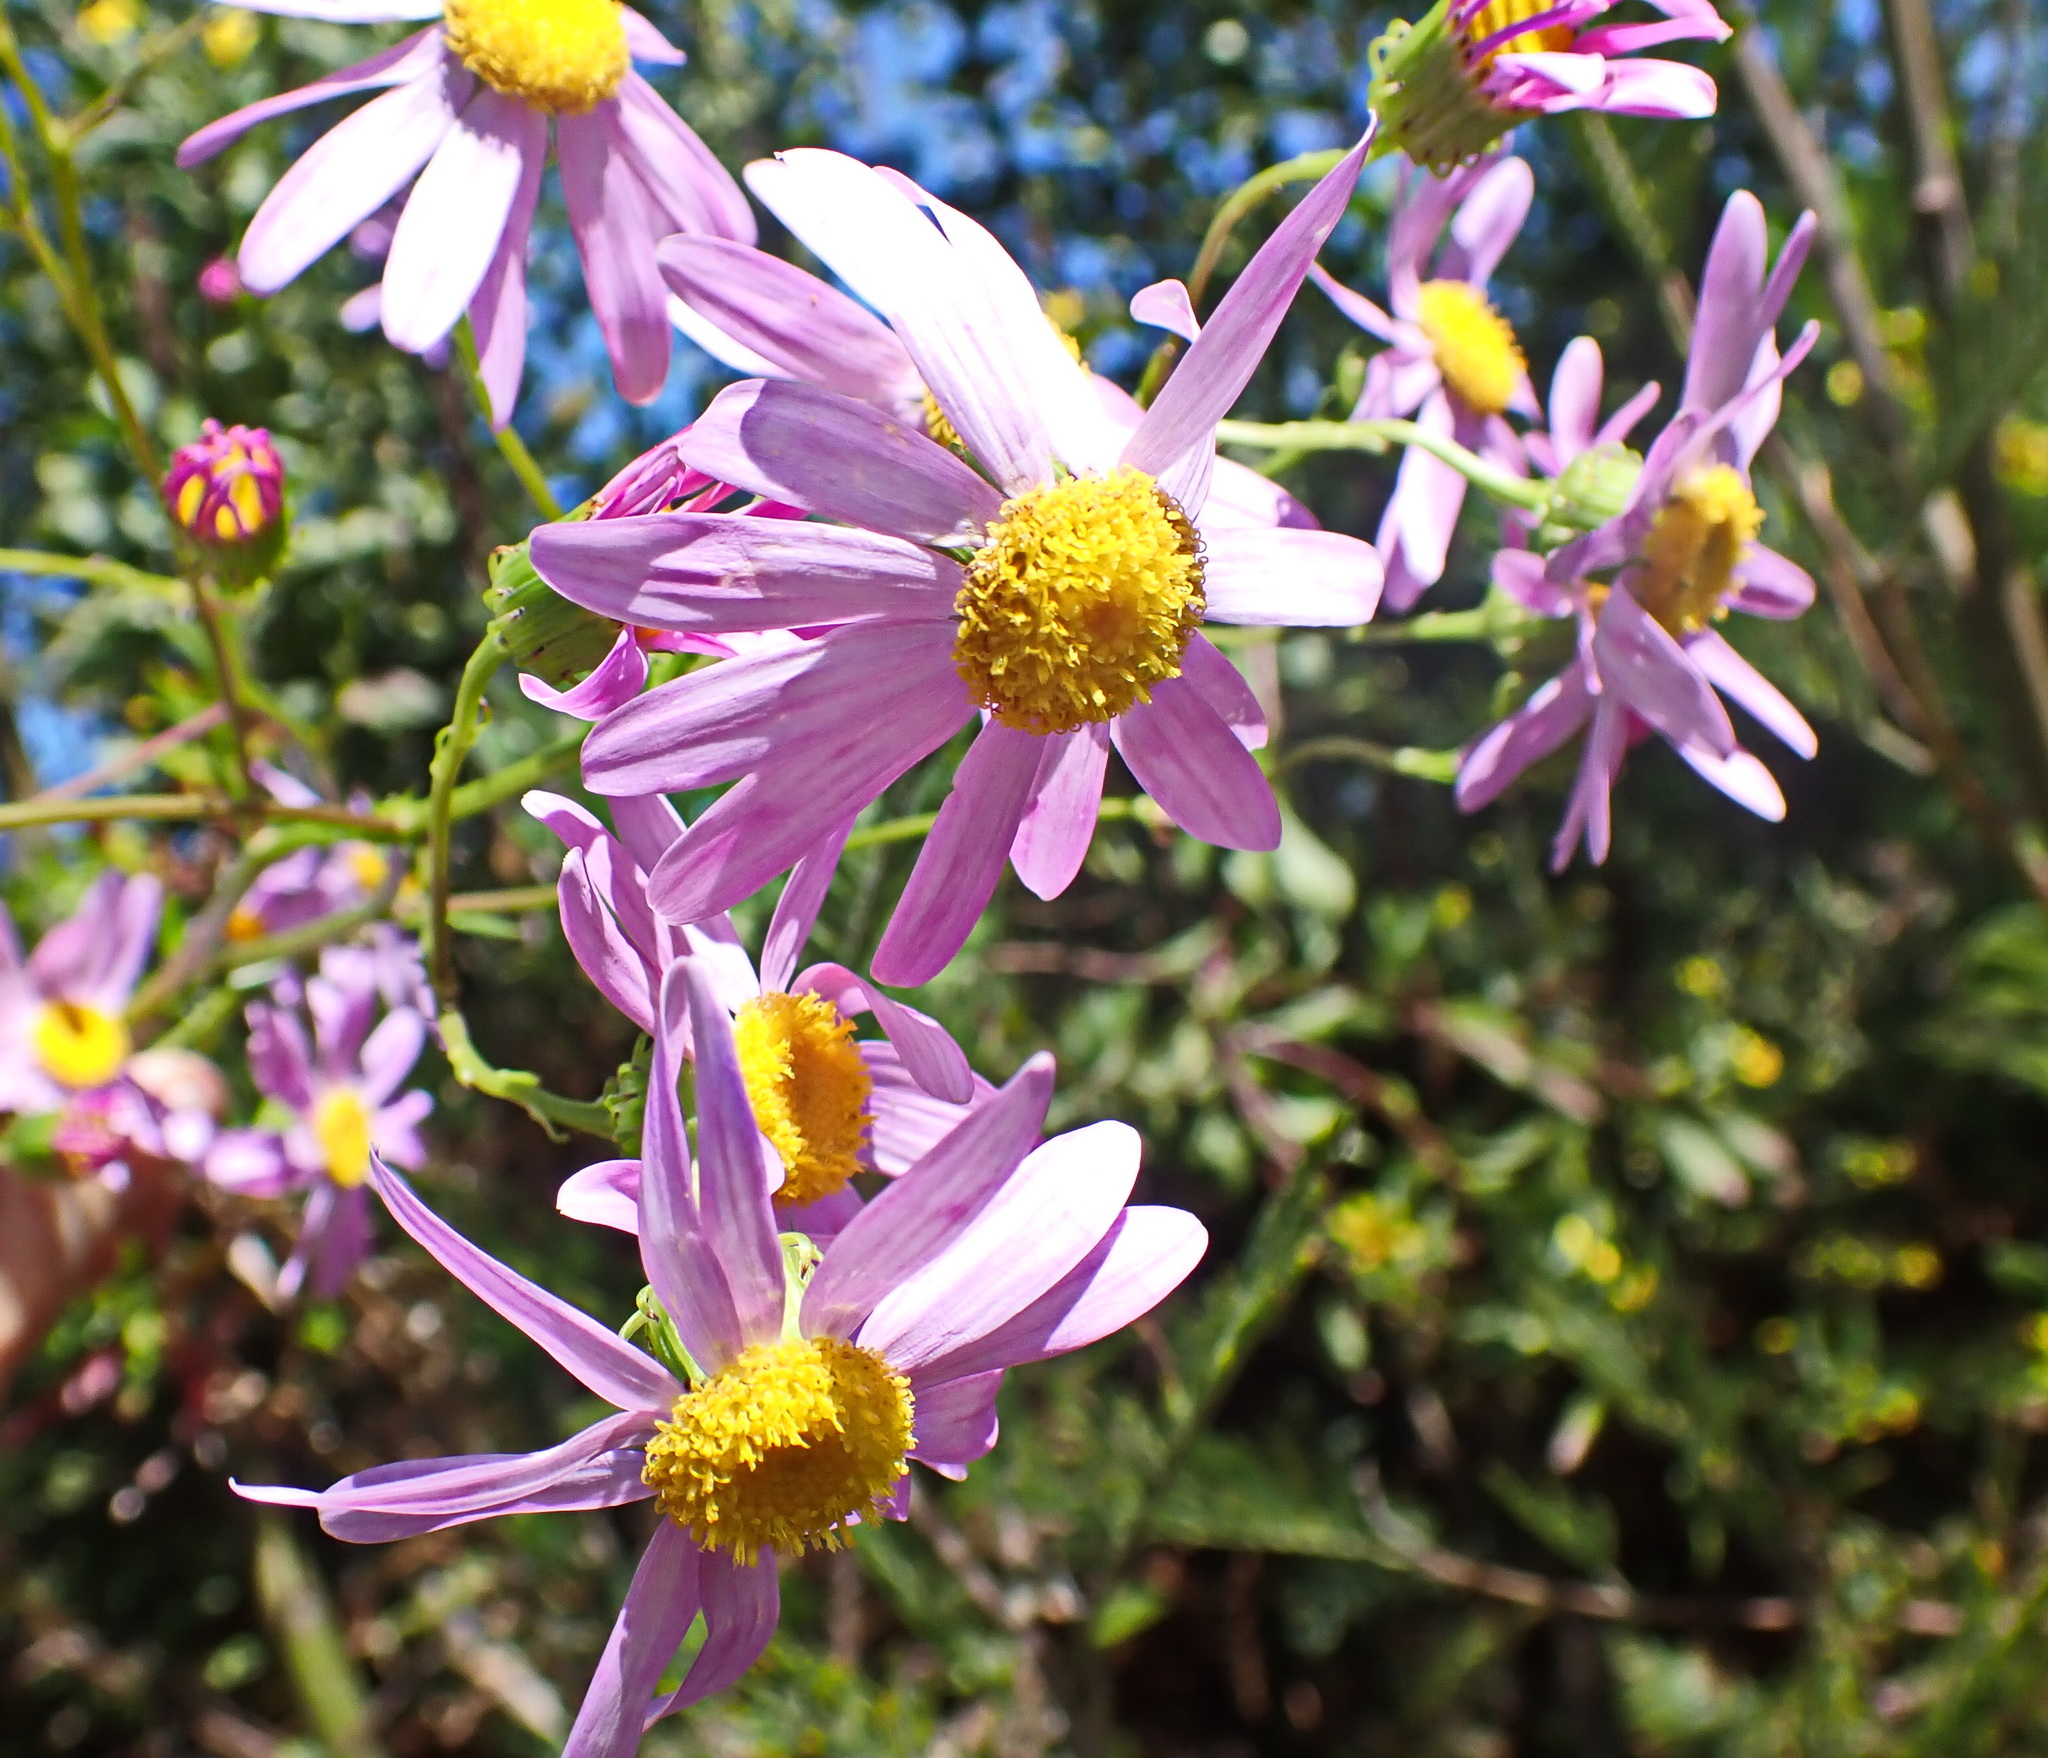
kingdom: Plantae
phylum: Tracheophyta
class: Magnoliopsida
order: Asterales
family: Asteraceae
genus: Senecio
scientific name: Senecio glastifolius
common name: Woad-leaved ragwort
